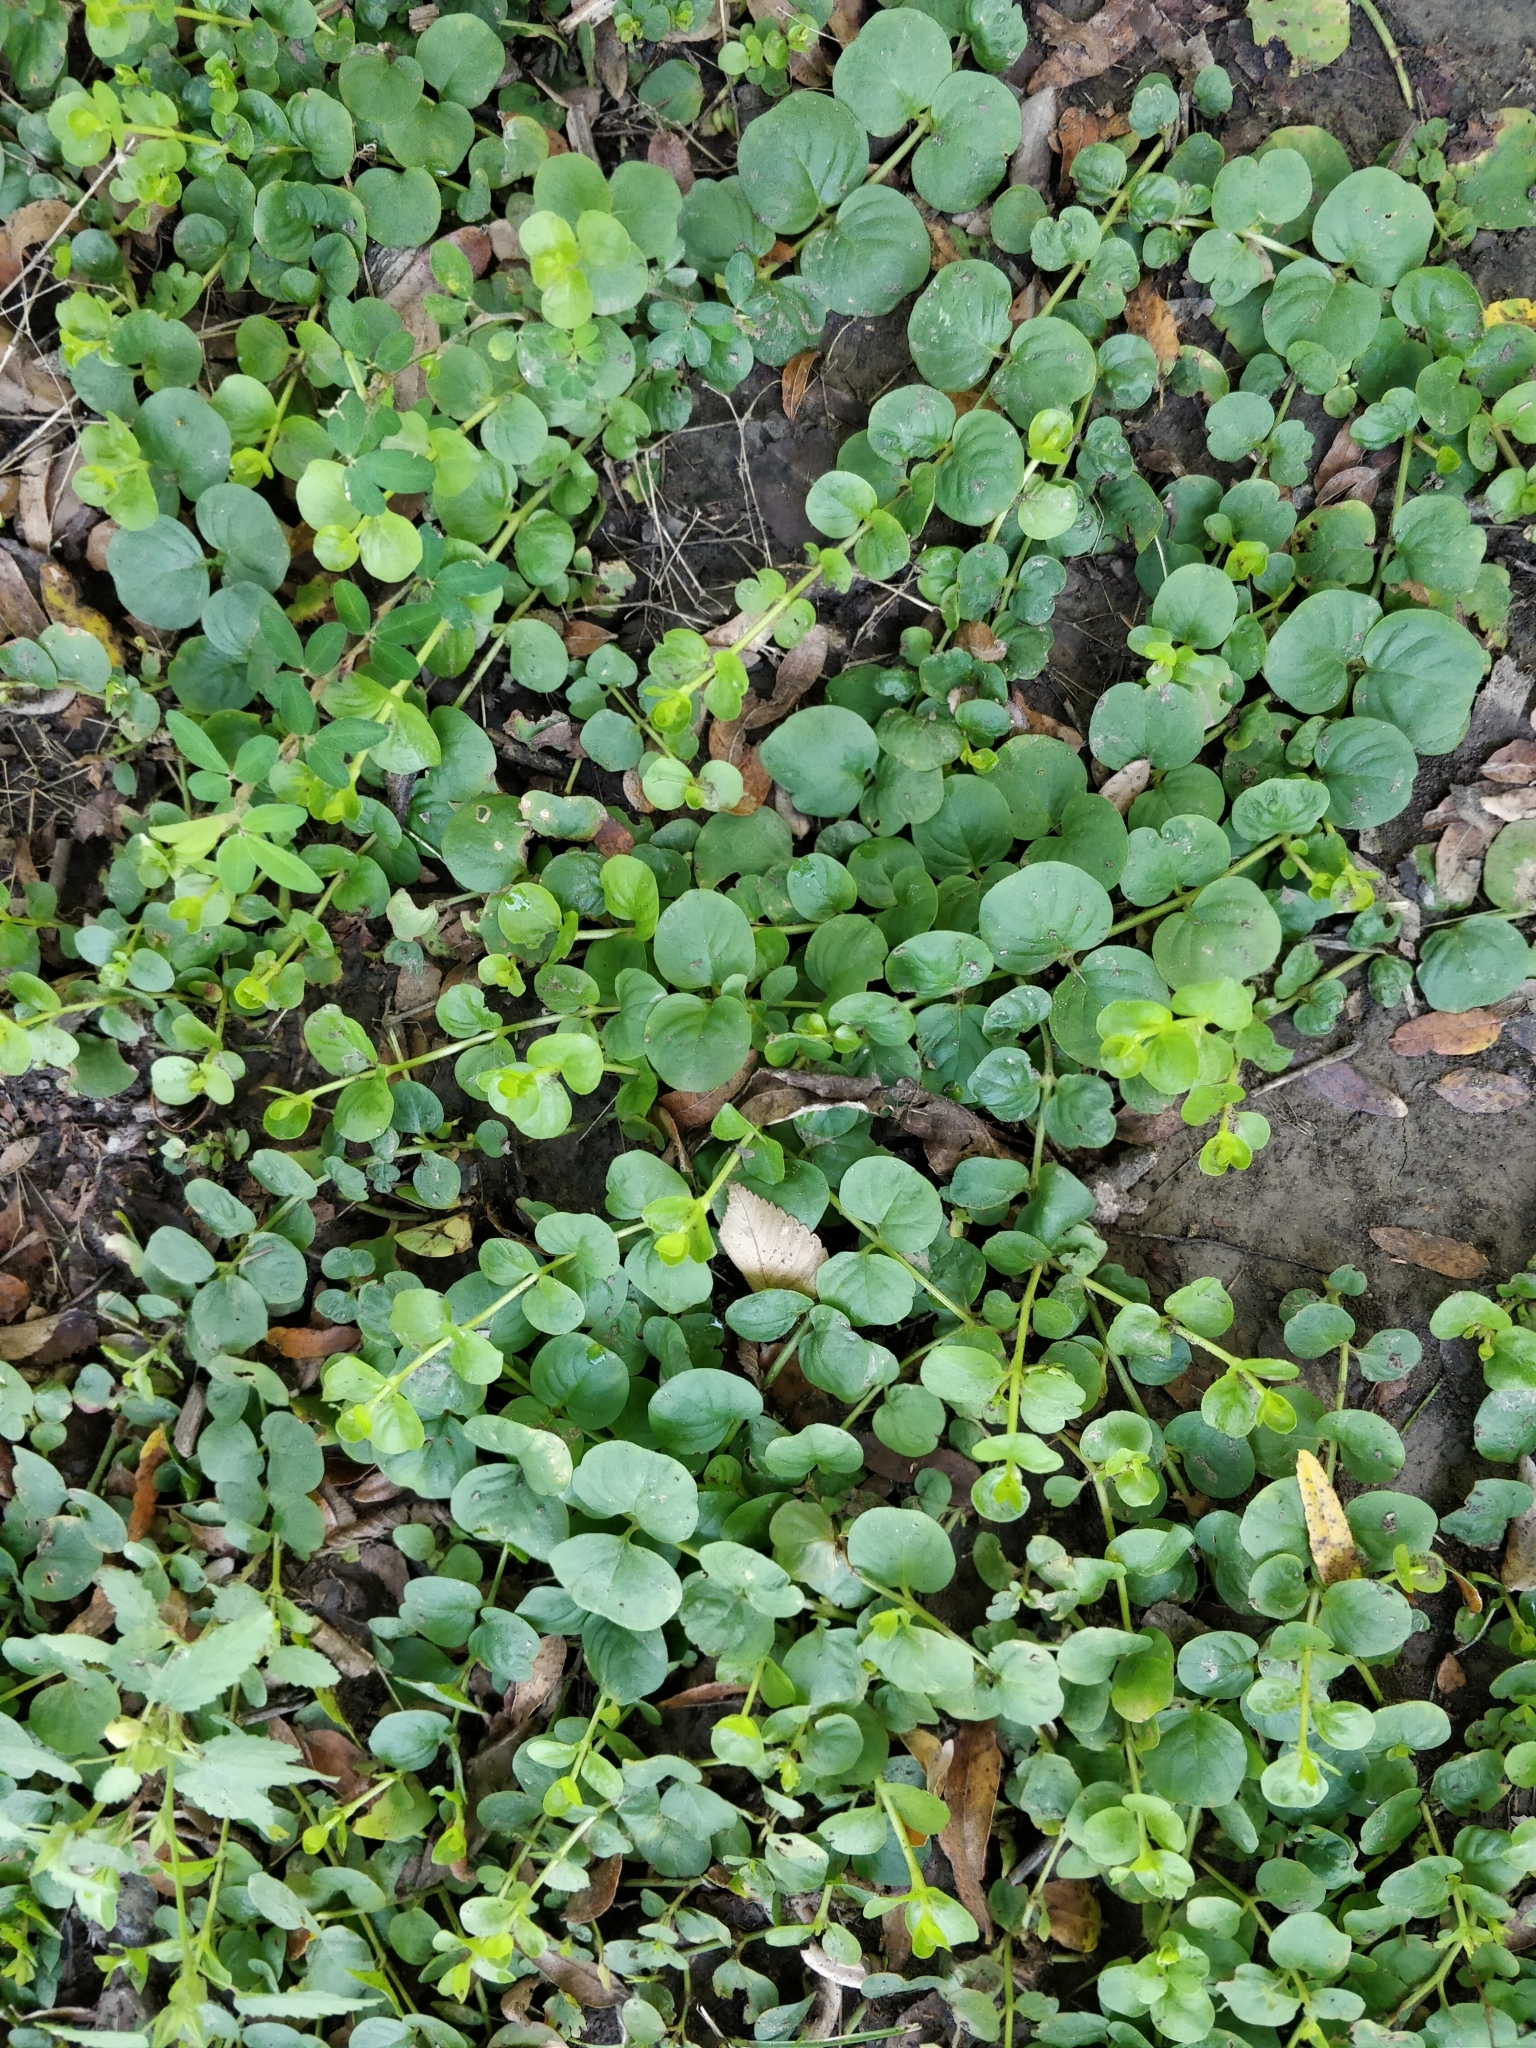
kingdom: Plantae
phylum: Tracheophyta
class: Magnoliopsida
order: Ericales
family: Primulaceae
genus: Lysimachia
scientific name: Lysimachia nummularia
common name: Moneywort
